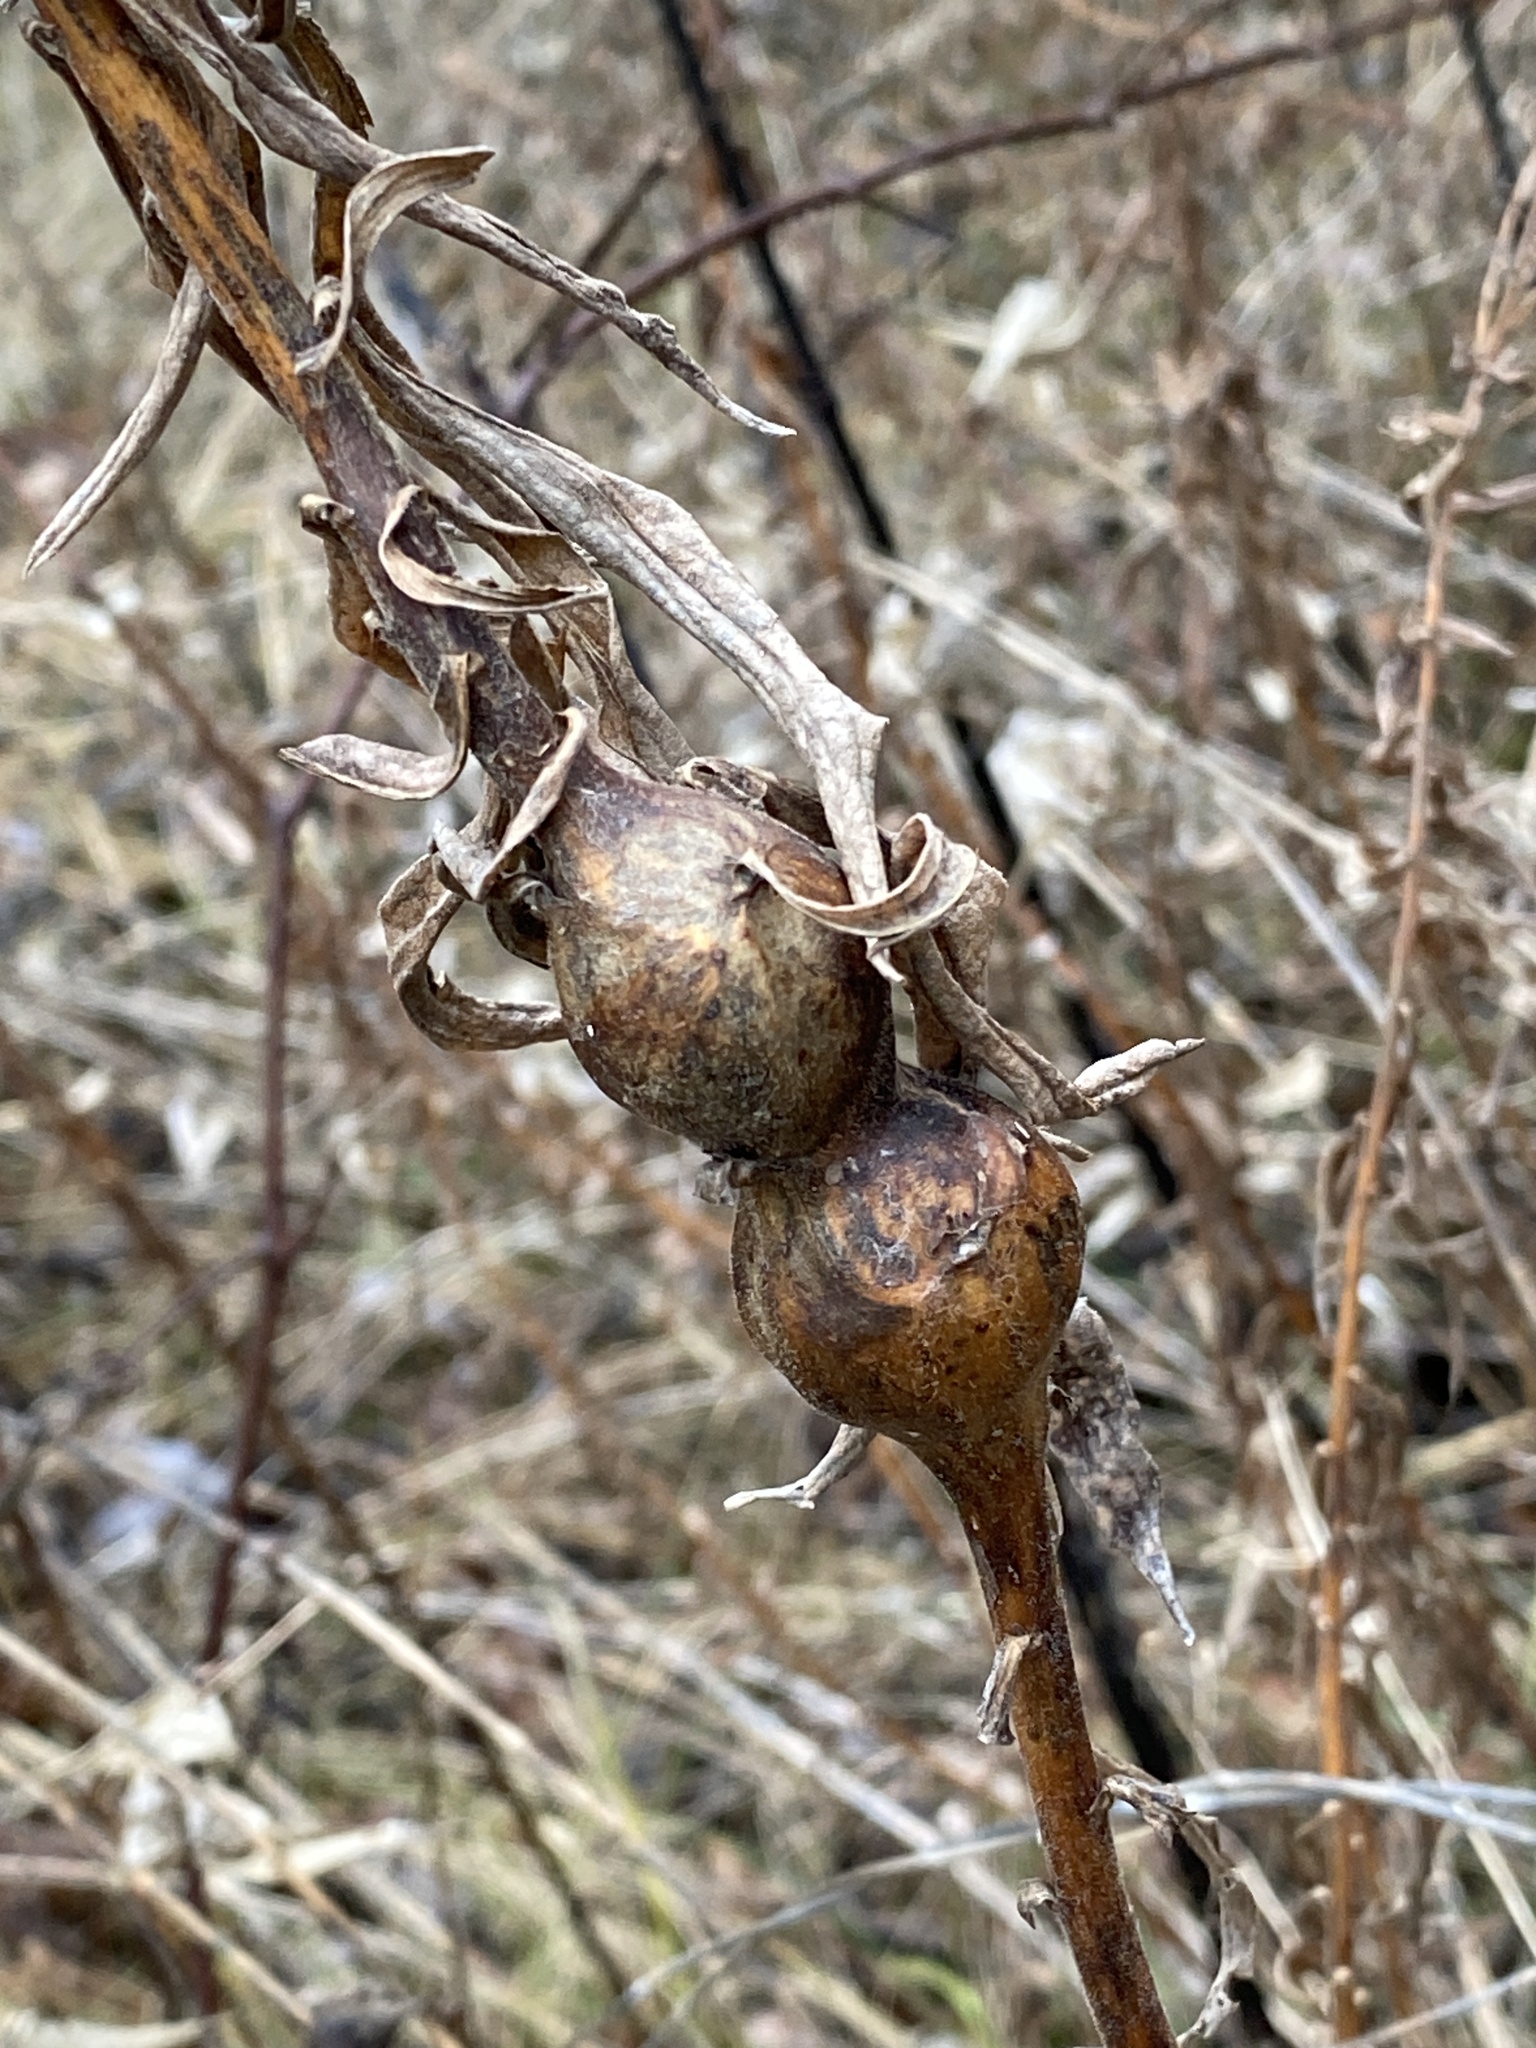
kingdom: Animalia
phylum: Arthropoda
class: Insecta
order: Diptera
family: Tephritidae
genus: Eurosta
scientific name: Eurosta solidaginis
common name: Goldenrod gall fly
